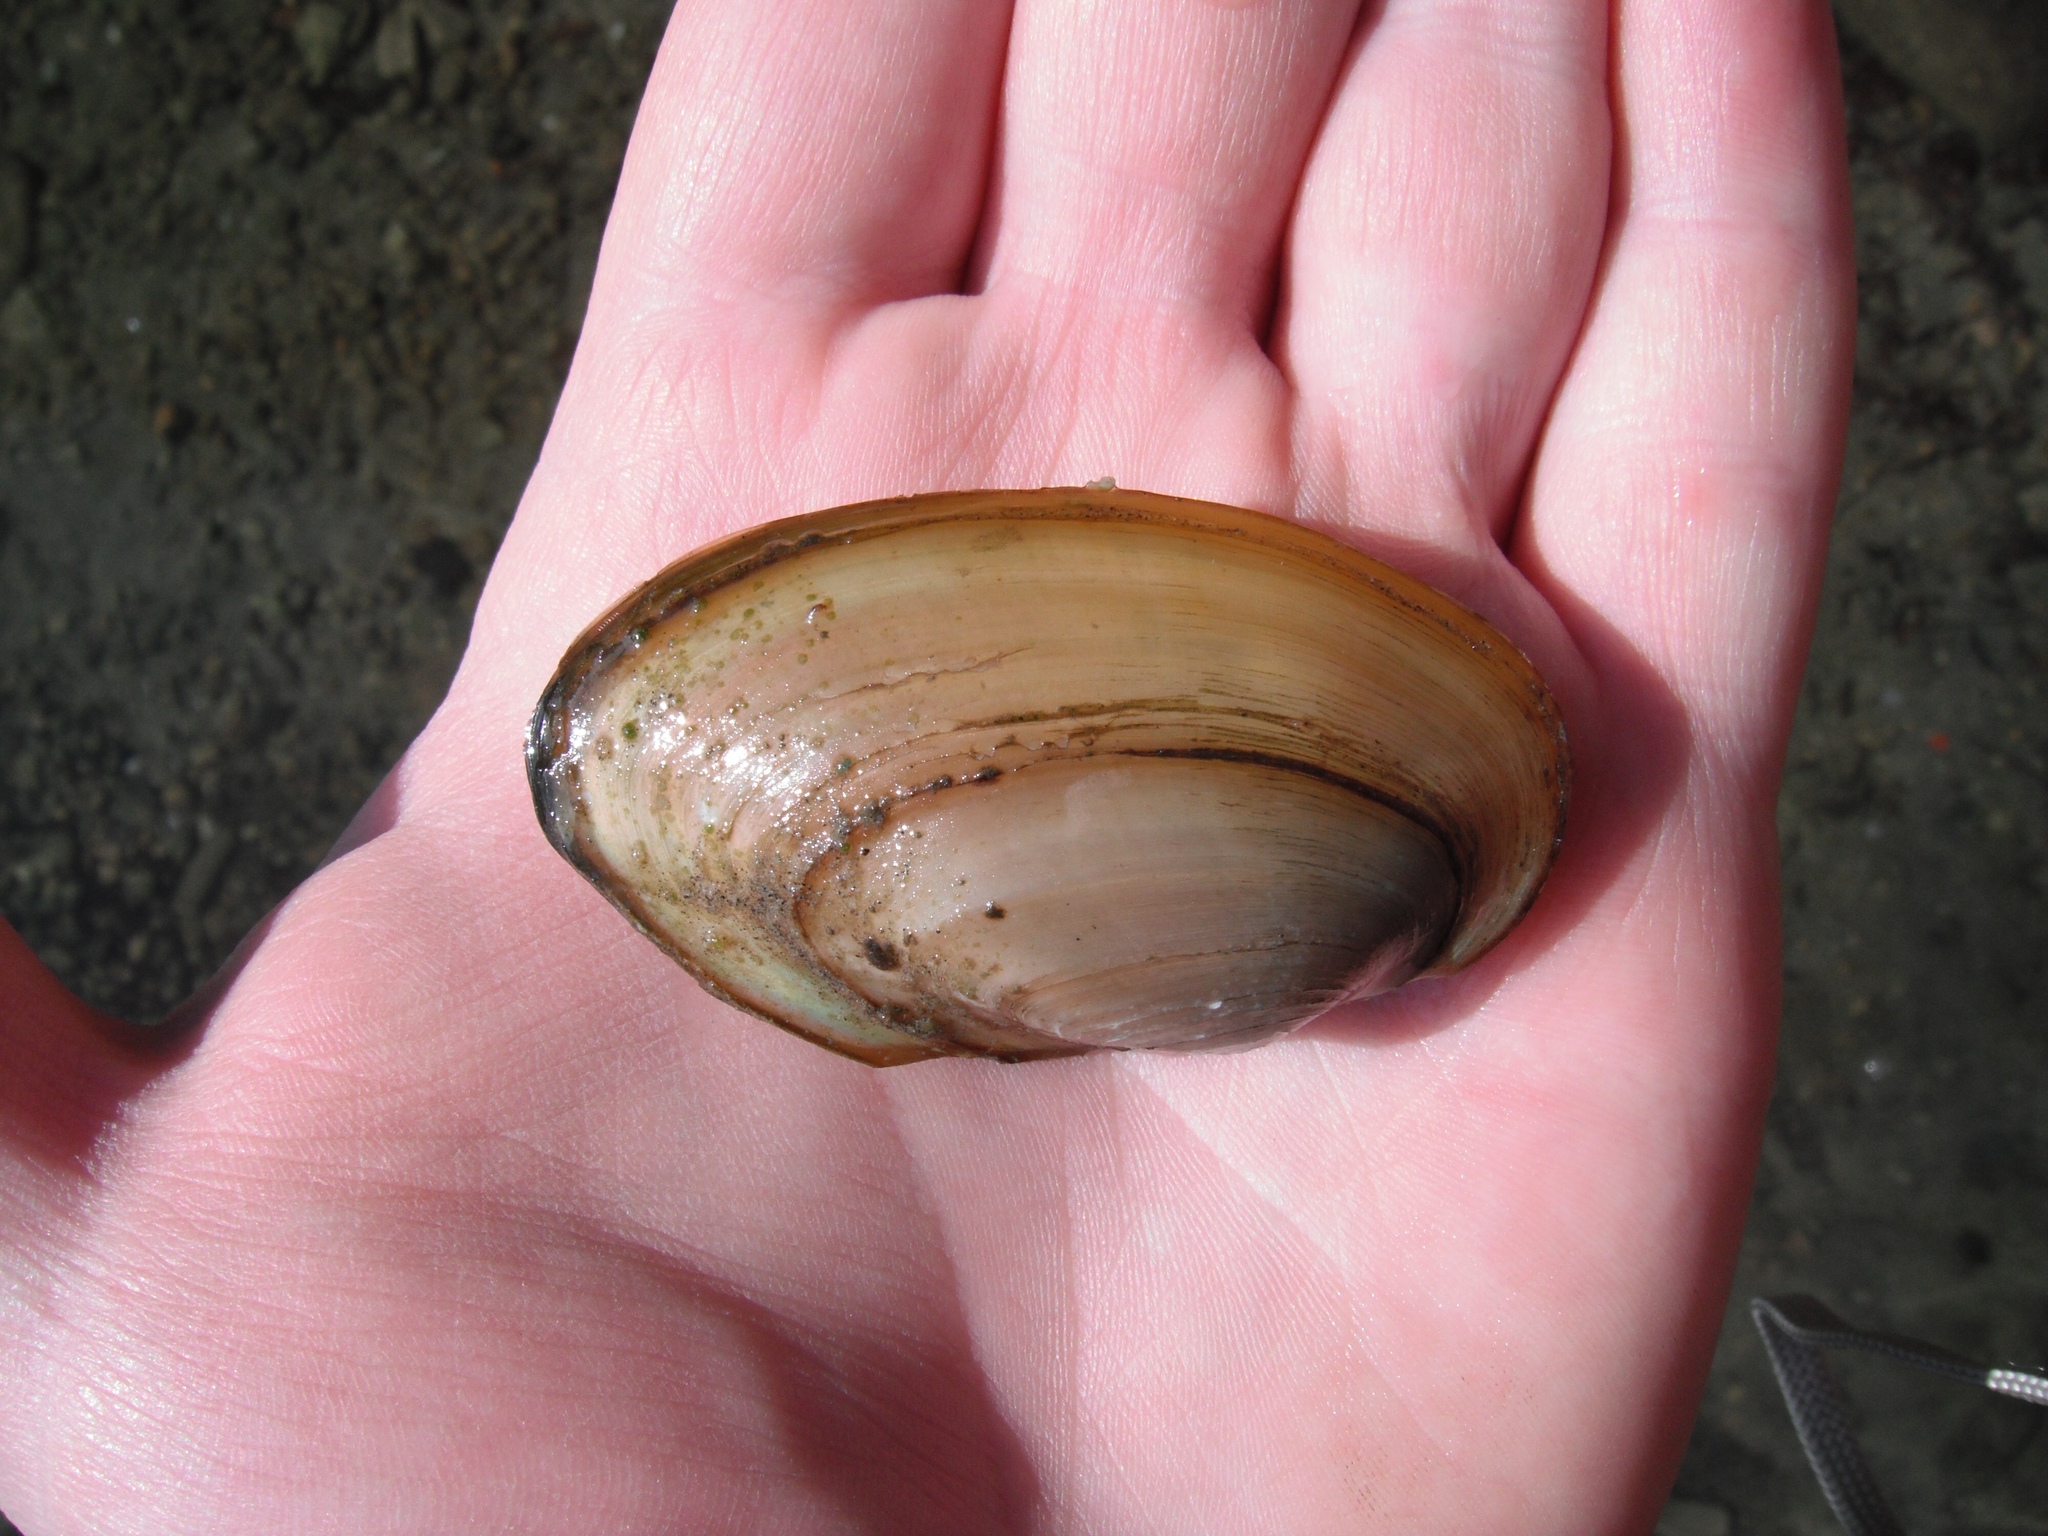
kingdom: Animalia
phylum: Mollusca
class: Bivalvia
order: Unionida
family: Unionidae
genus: Pyganodon
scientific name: Pyganodon grandis
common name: Giant floater
